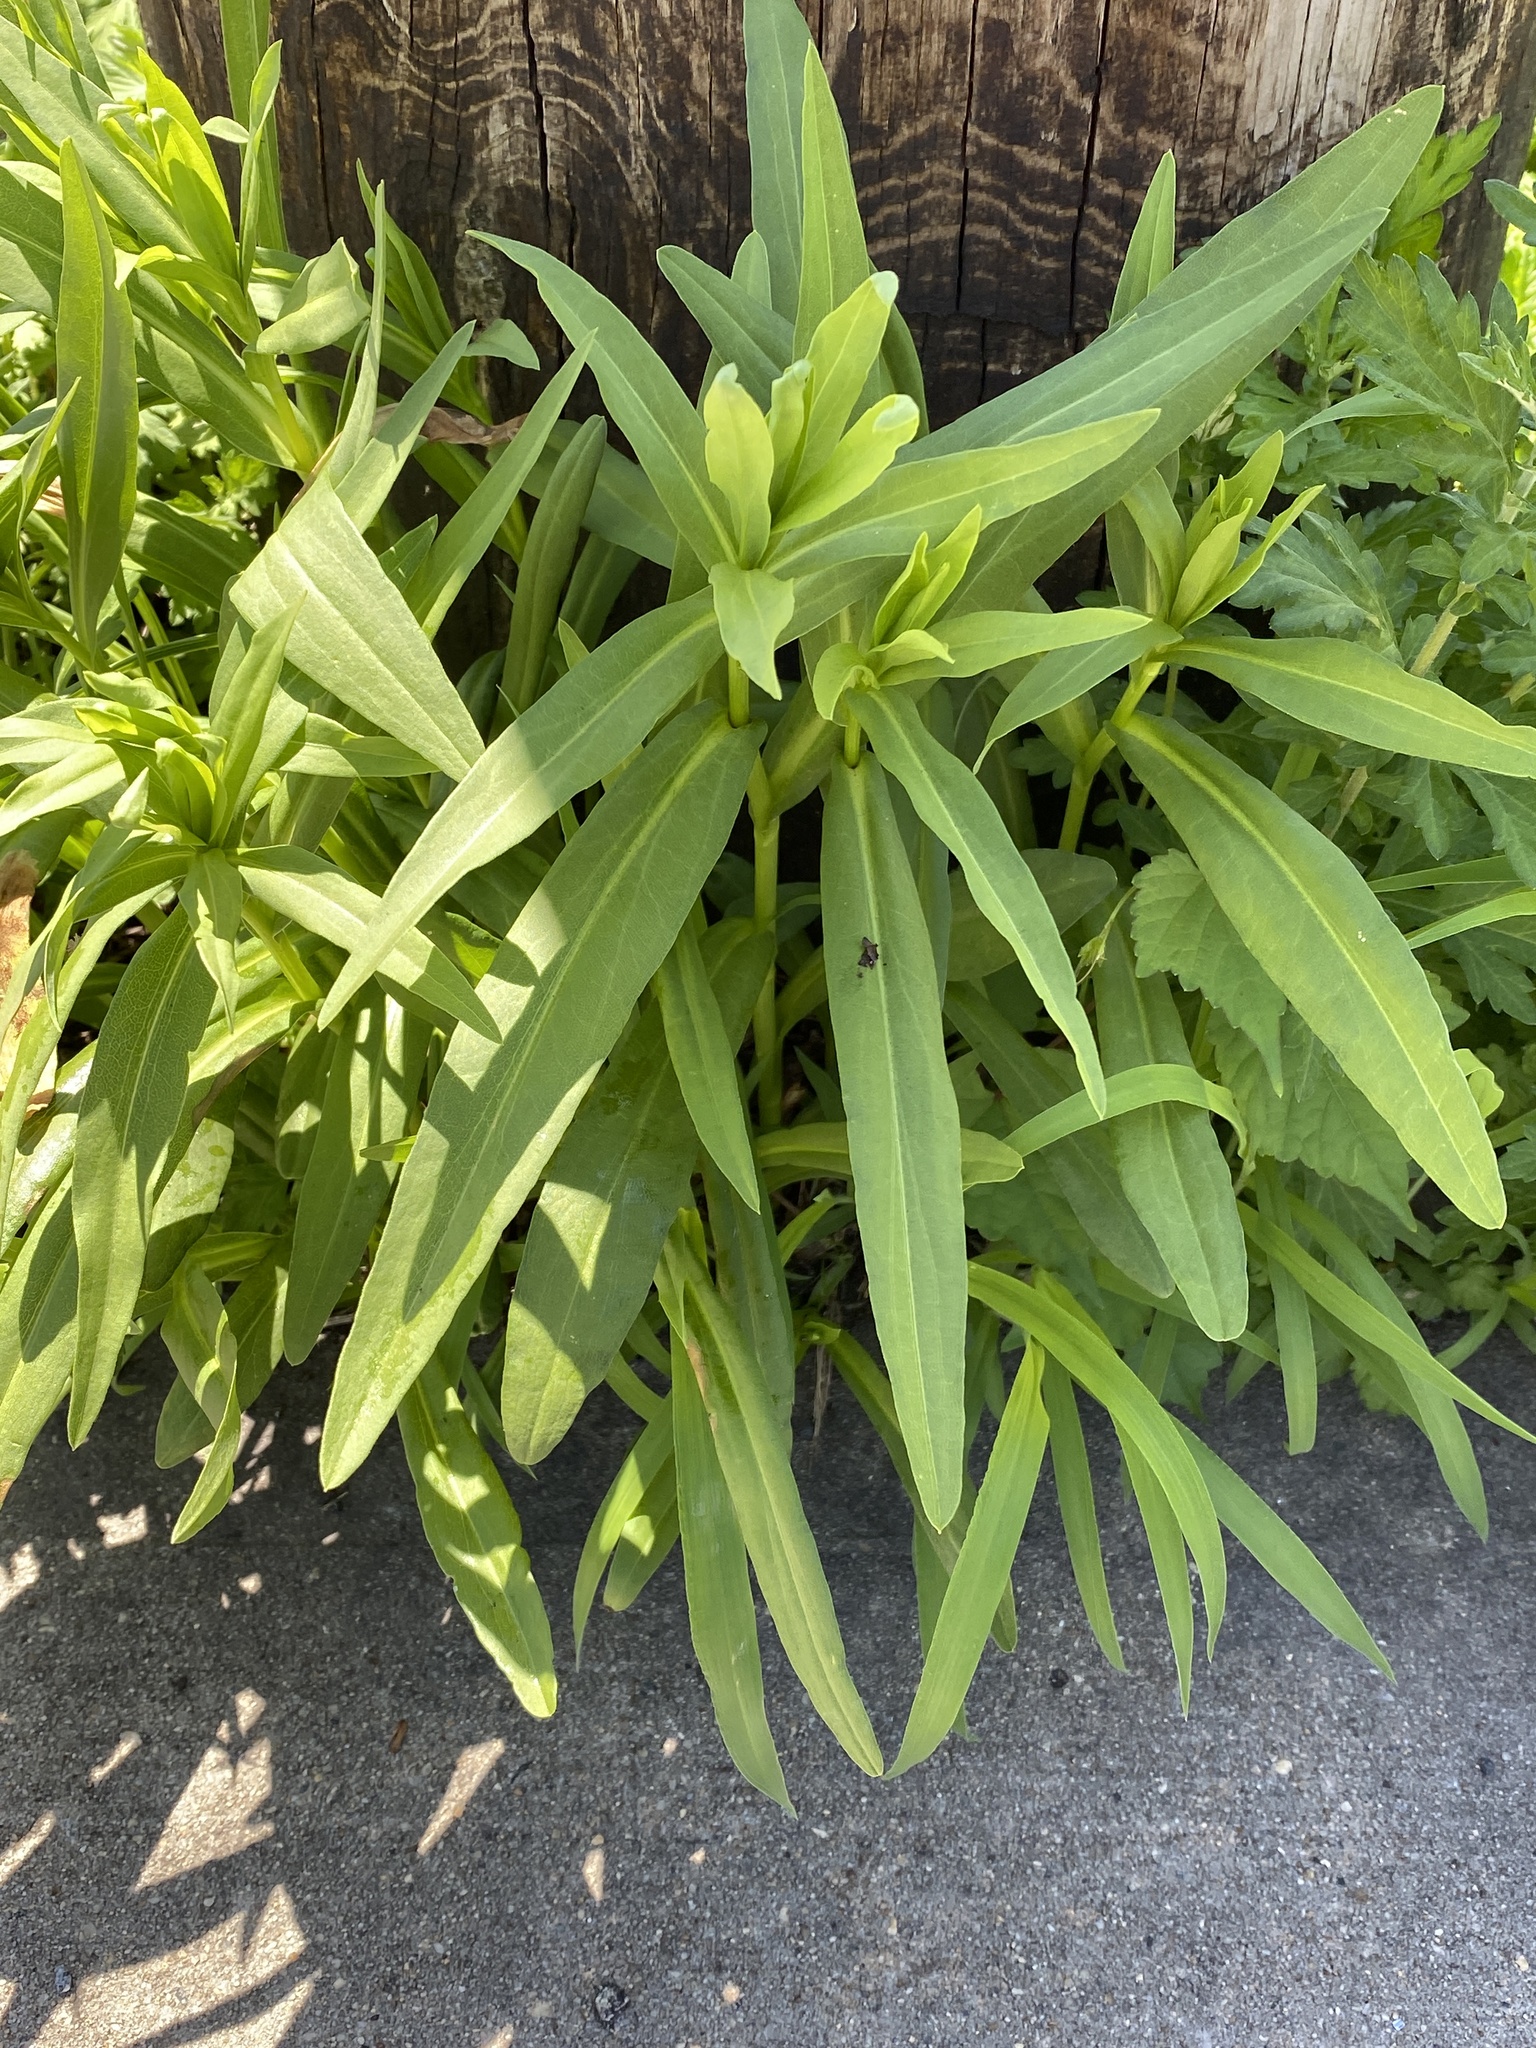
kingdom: Plantae
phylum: Tracheophyta
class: Magnoliopsida
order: Asterales
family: Asteraceae
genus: Solidago
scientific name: Solidago sempervirens
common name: Salt-marsh goldenrod
